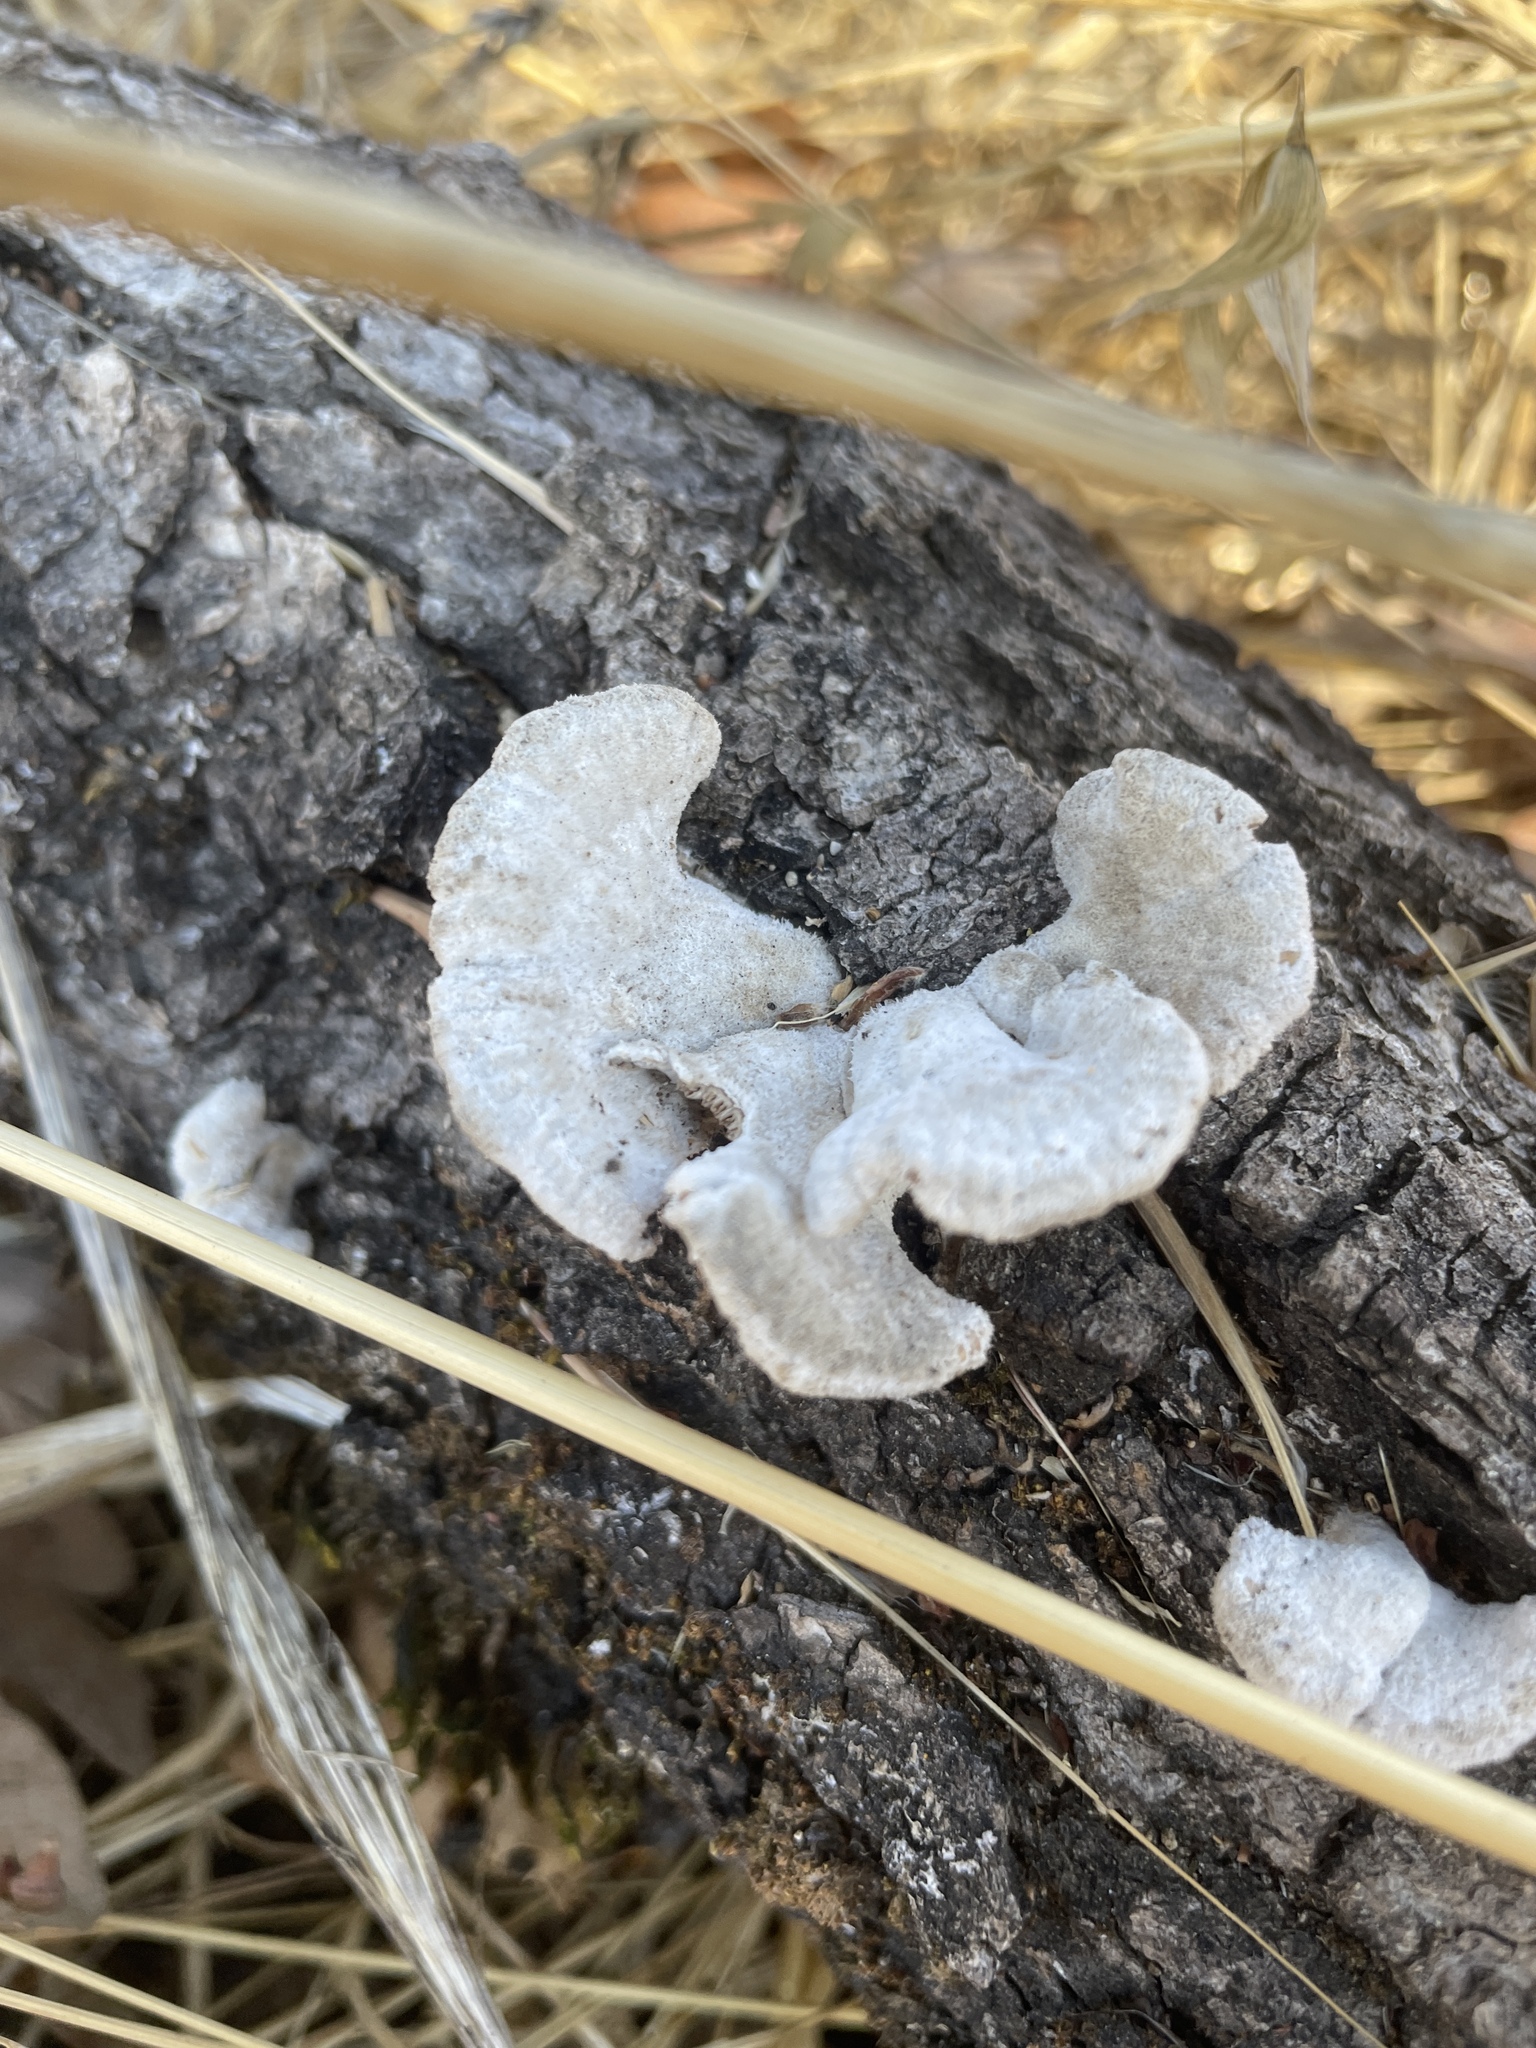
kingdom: Fungi
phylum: Basidiomycota
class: Agaricomycetes
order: Agaricales
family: Schizophyllaceae
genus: Schizophyllum
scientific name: Schizophyllum commune
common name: Common porecrust
